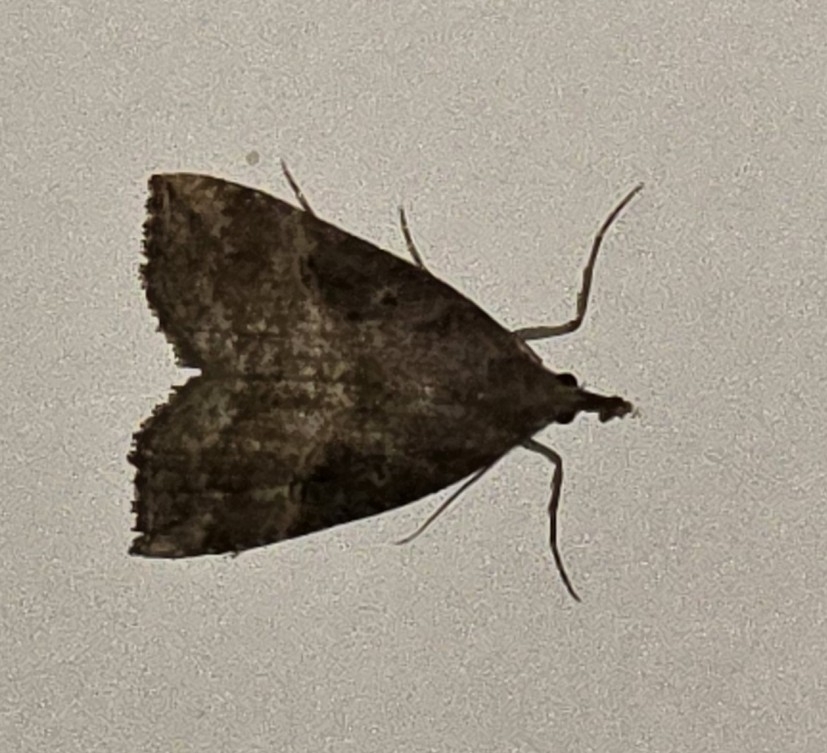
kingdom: Animalia
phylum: Arthropoda
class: Insecta
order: Lepidoptera
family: Erebidae
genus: Hypena
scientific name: Hypena rostralis
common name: Buttoned snout
